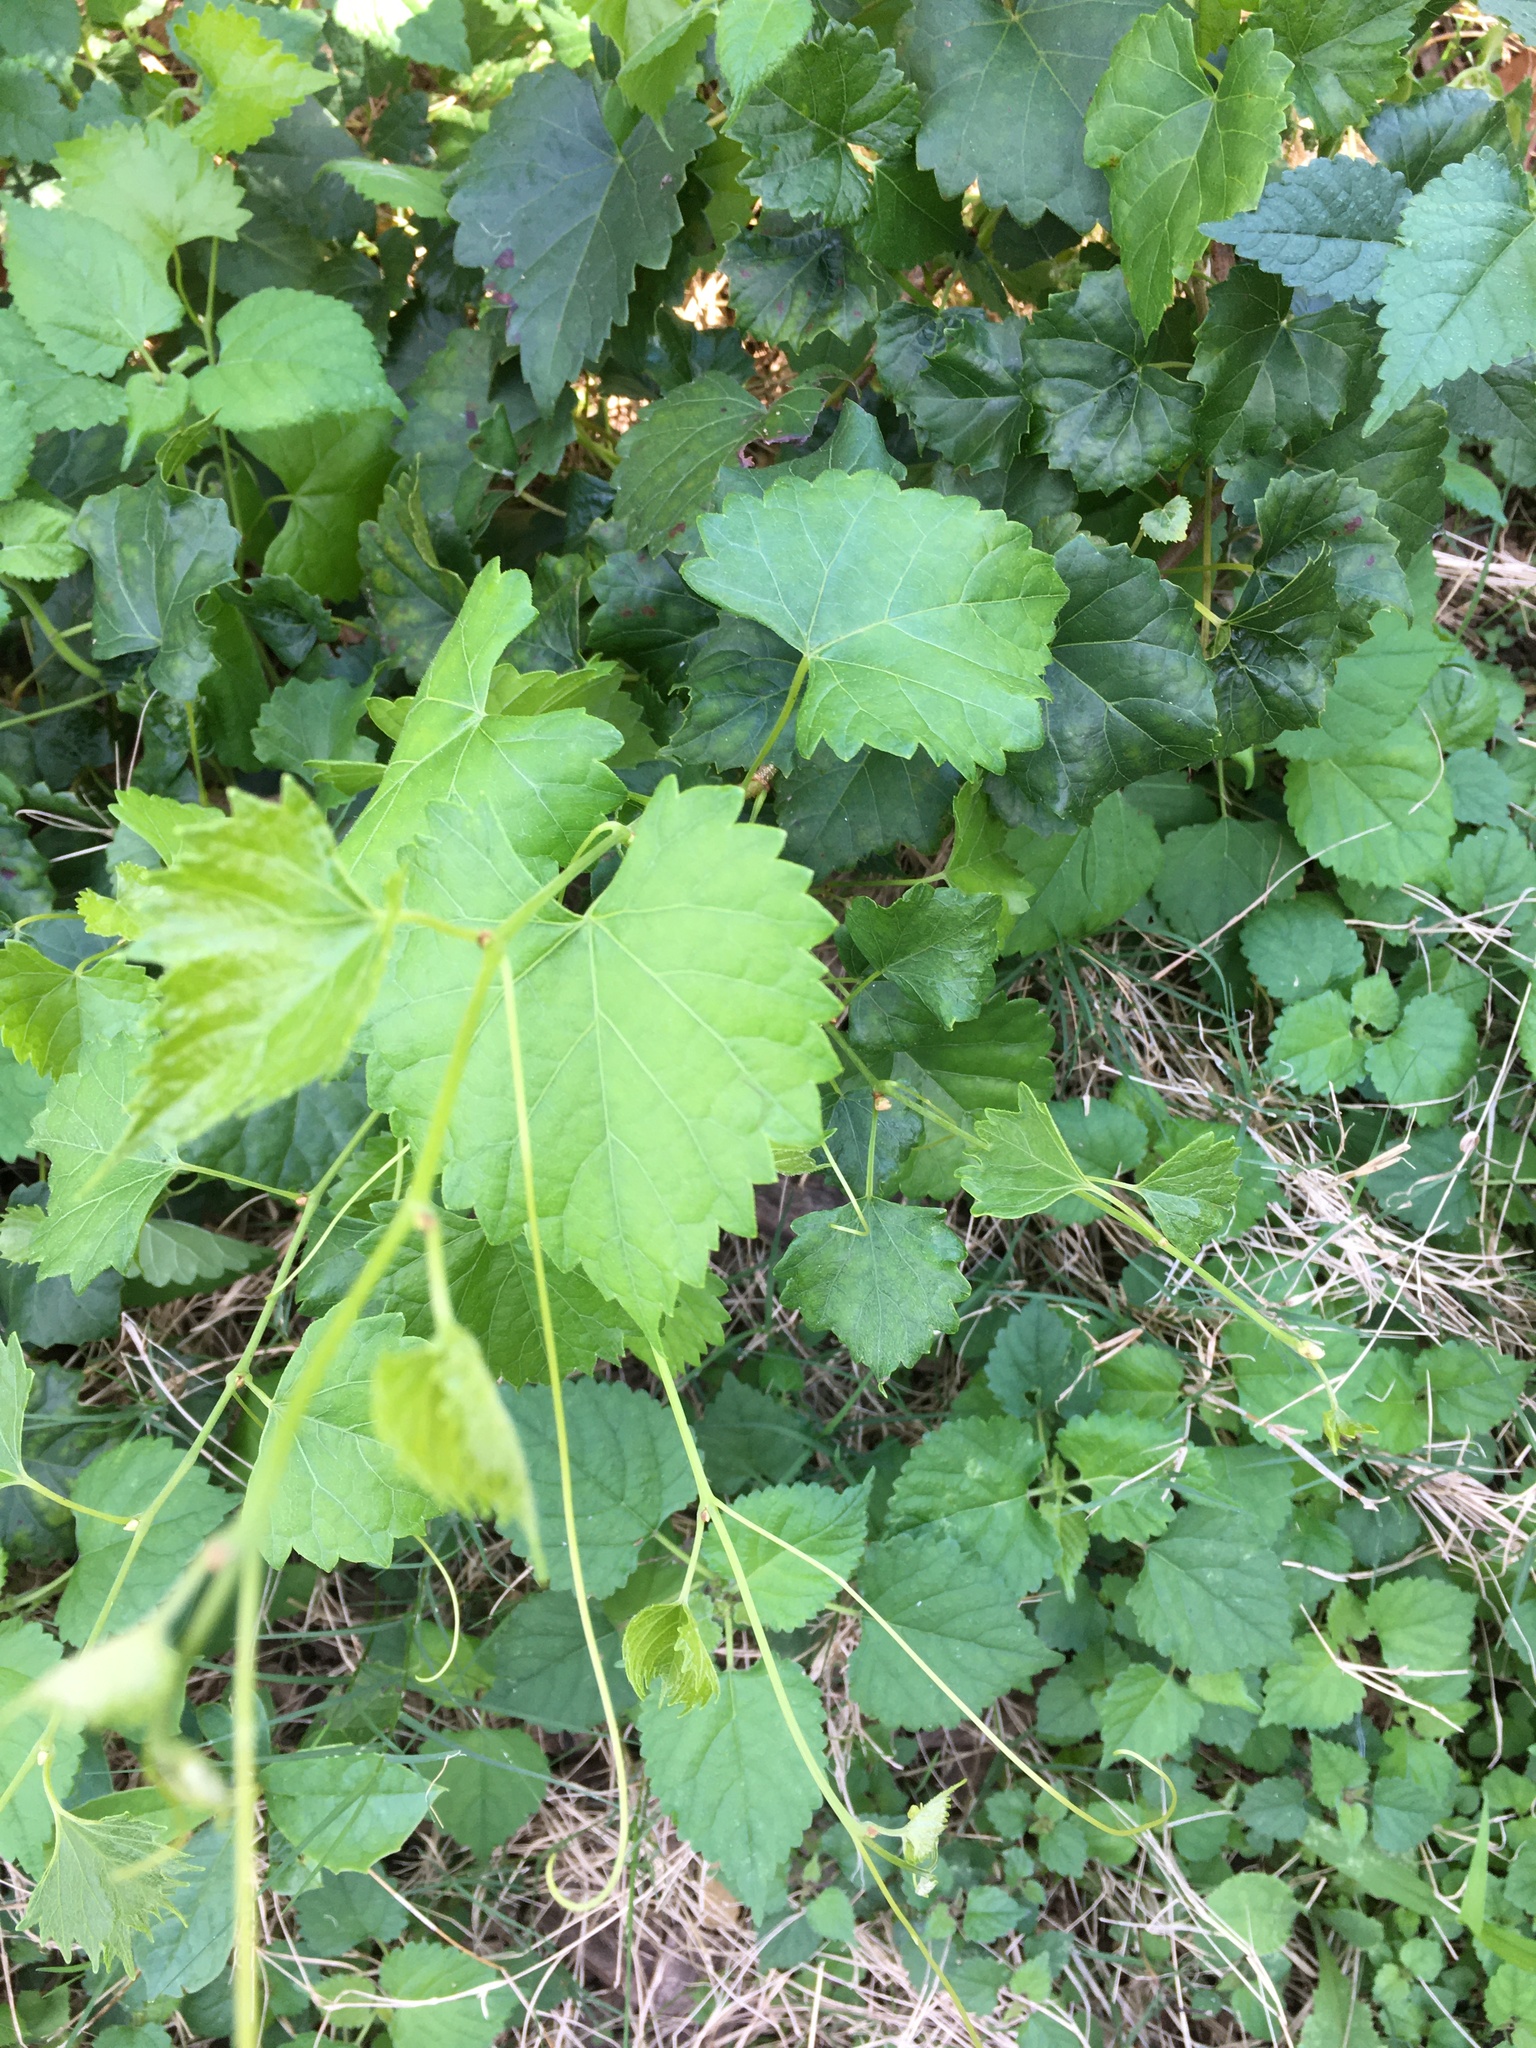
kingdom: Plantae
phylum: Tracheophyta
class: Magnoliopsida
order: Vitales
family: Vitaceae
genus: Vitis
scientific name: Vitis rotundifolia
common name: Muscadine grape
